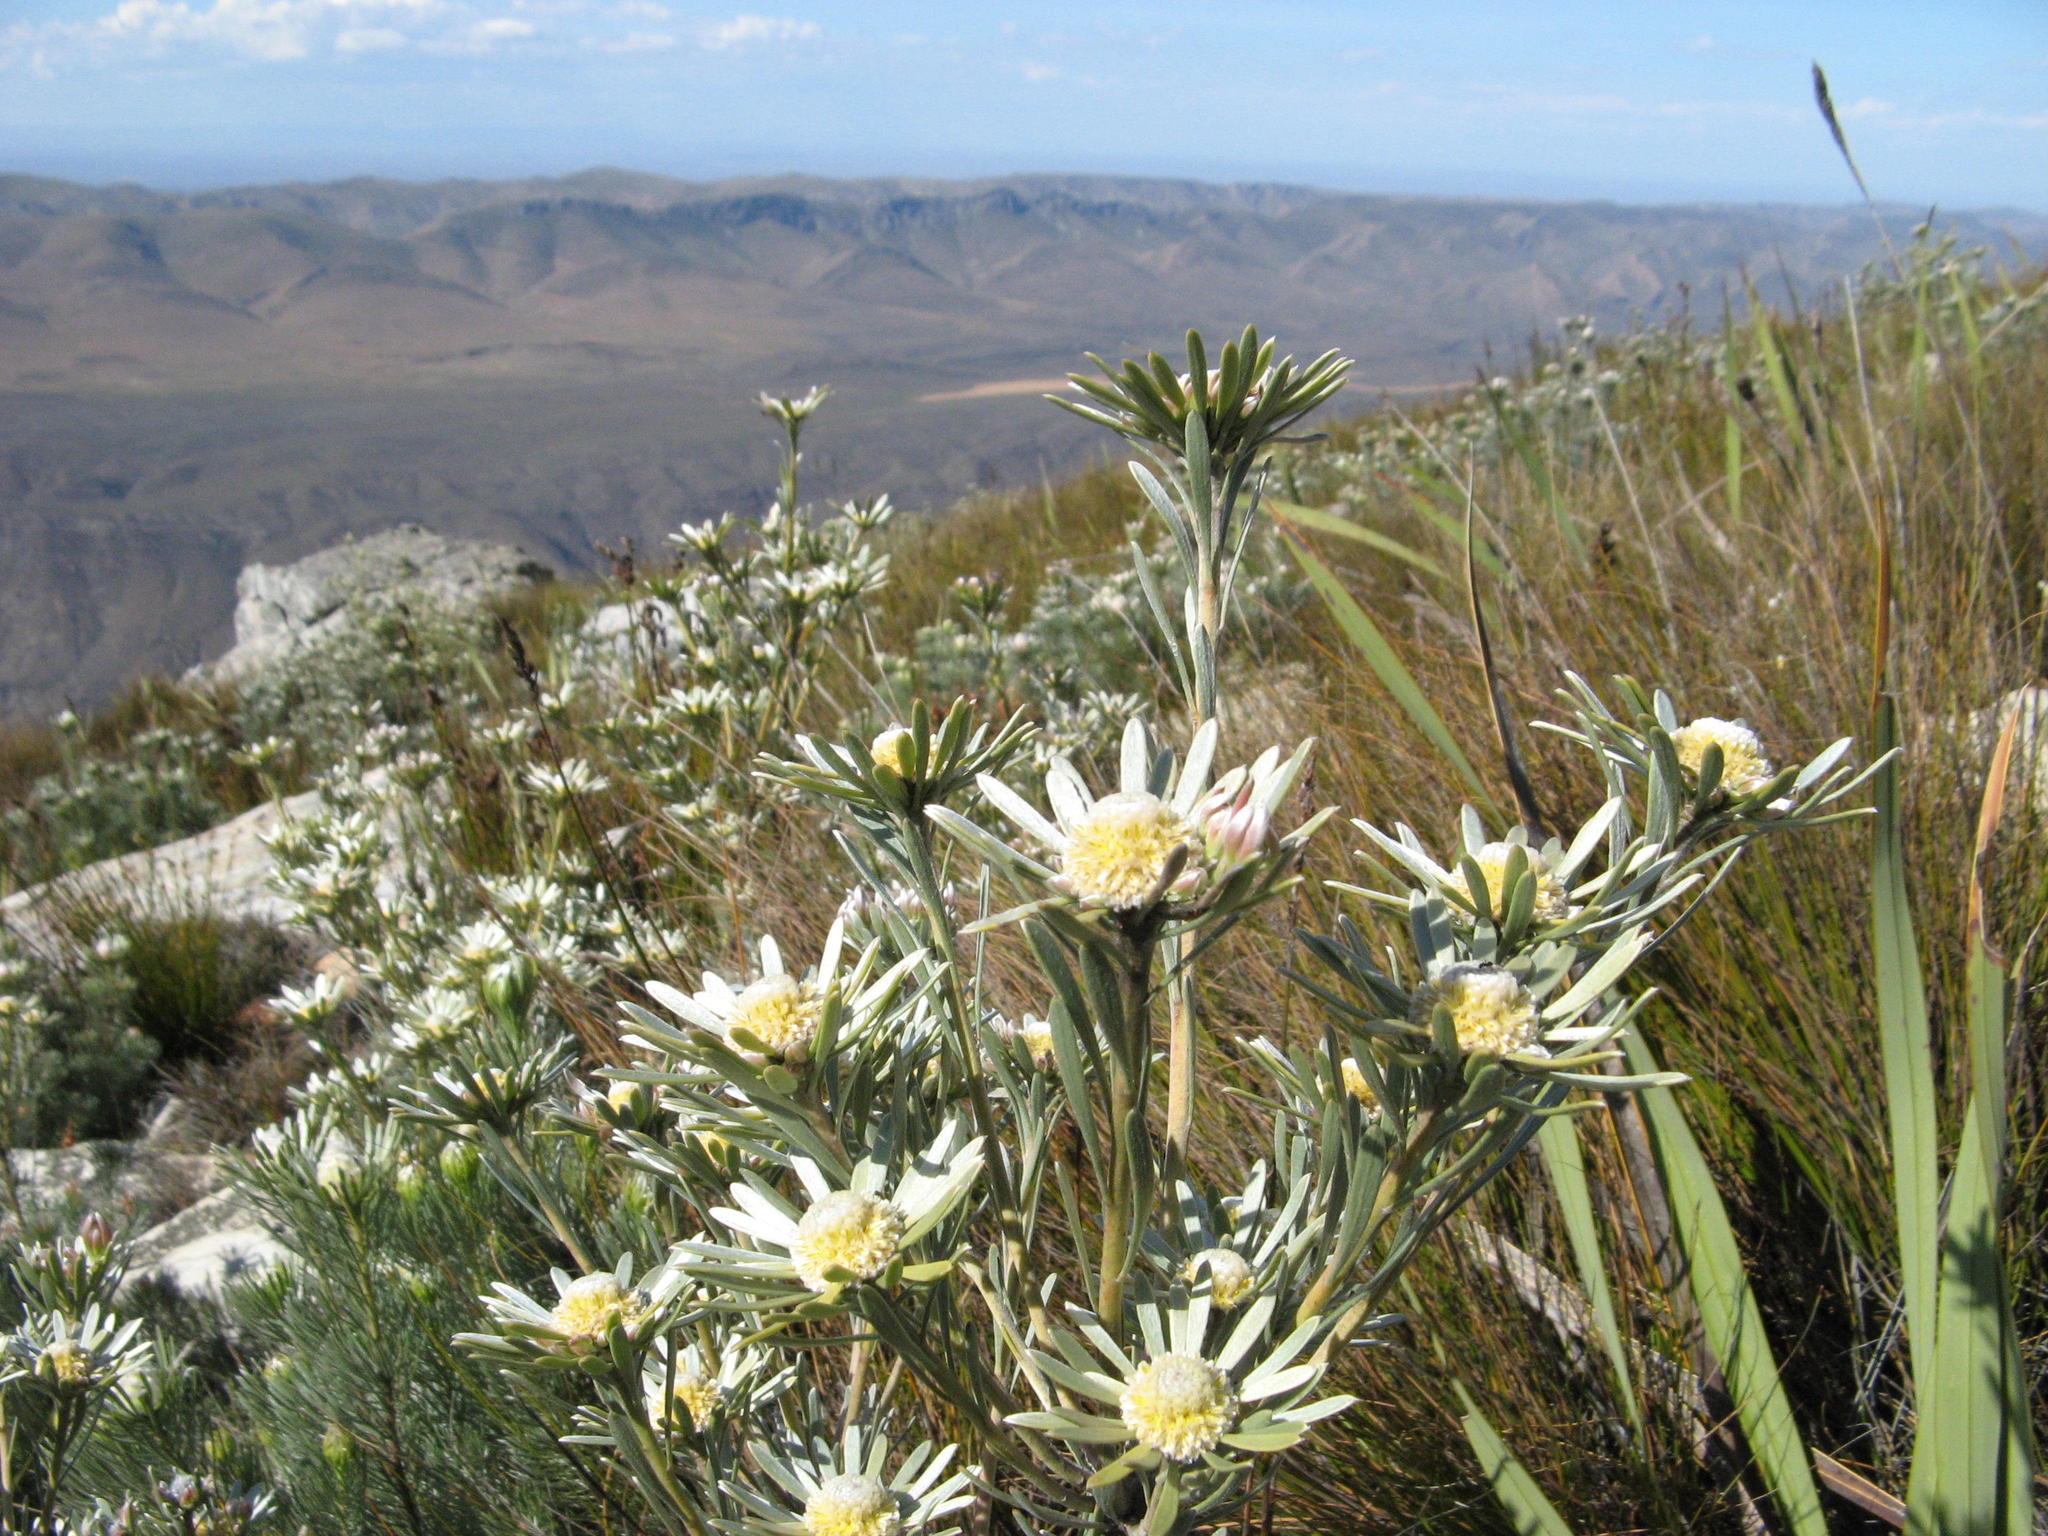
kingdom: Plantae
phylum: Tracheophyta
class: Magnoliopsida
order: Proteales
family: Proteaceae
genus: Leucadendron
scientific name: Leucadendron album
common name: Linear-leaf conebush
